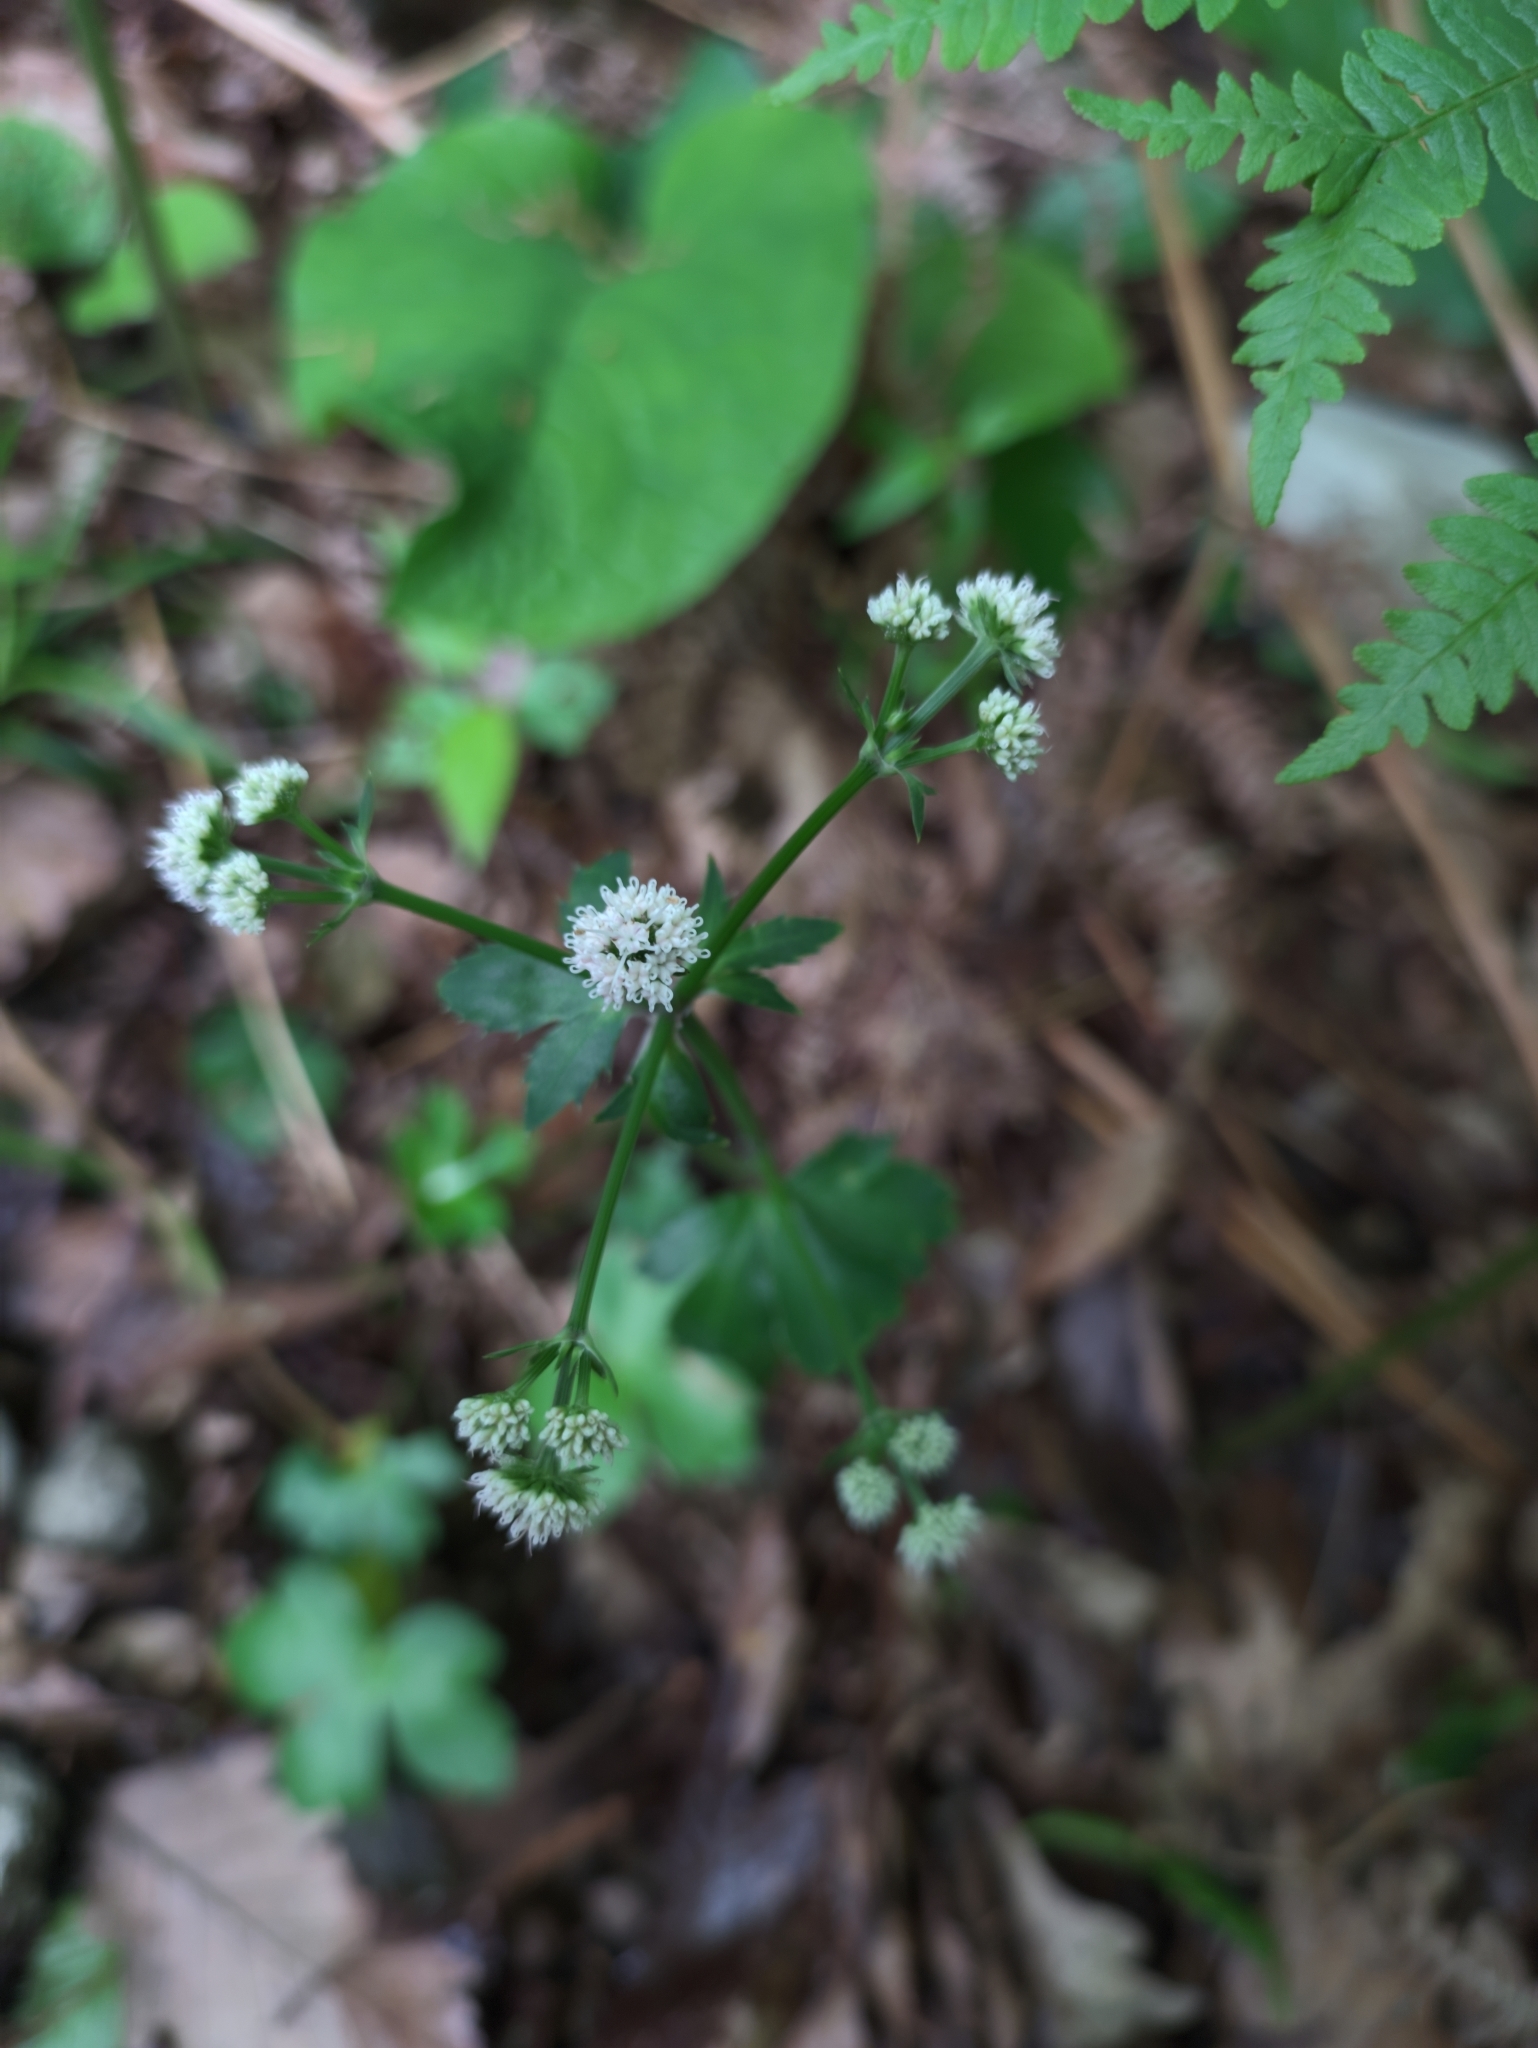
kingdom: Plantae
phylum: Tracheophyta
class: Magnoliopsida
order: Apiales
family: Apiaceae
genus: Sanicula
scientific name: Sanicula europaea
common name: Sanicle
